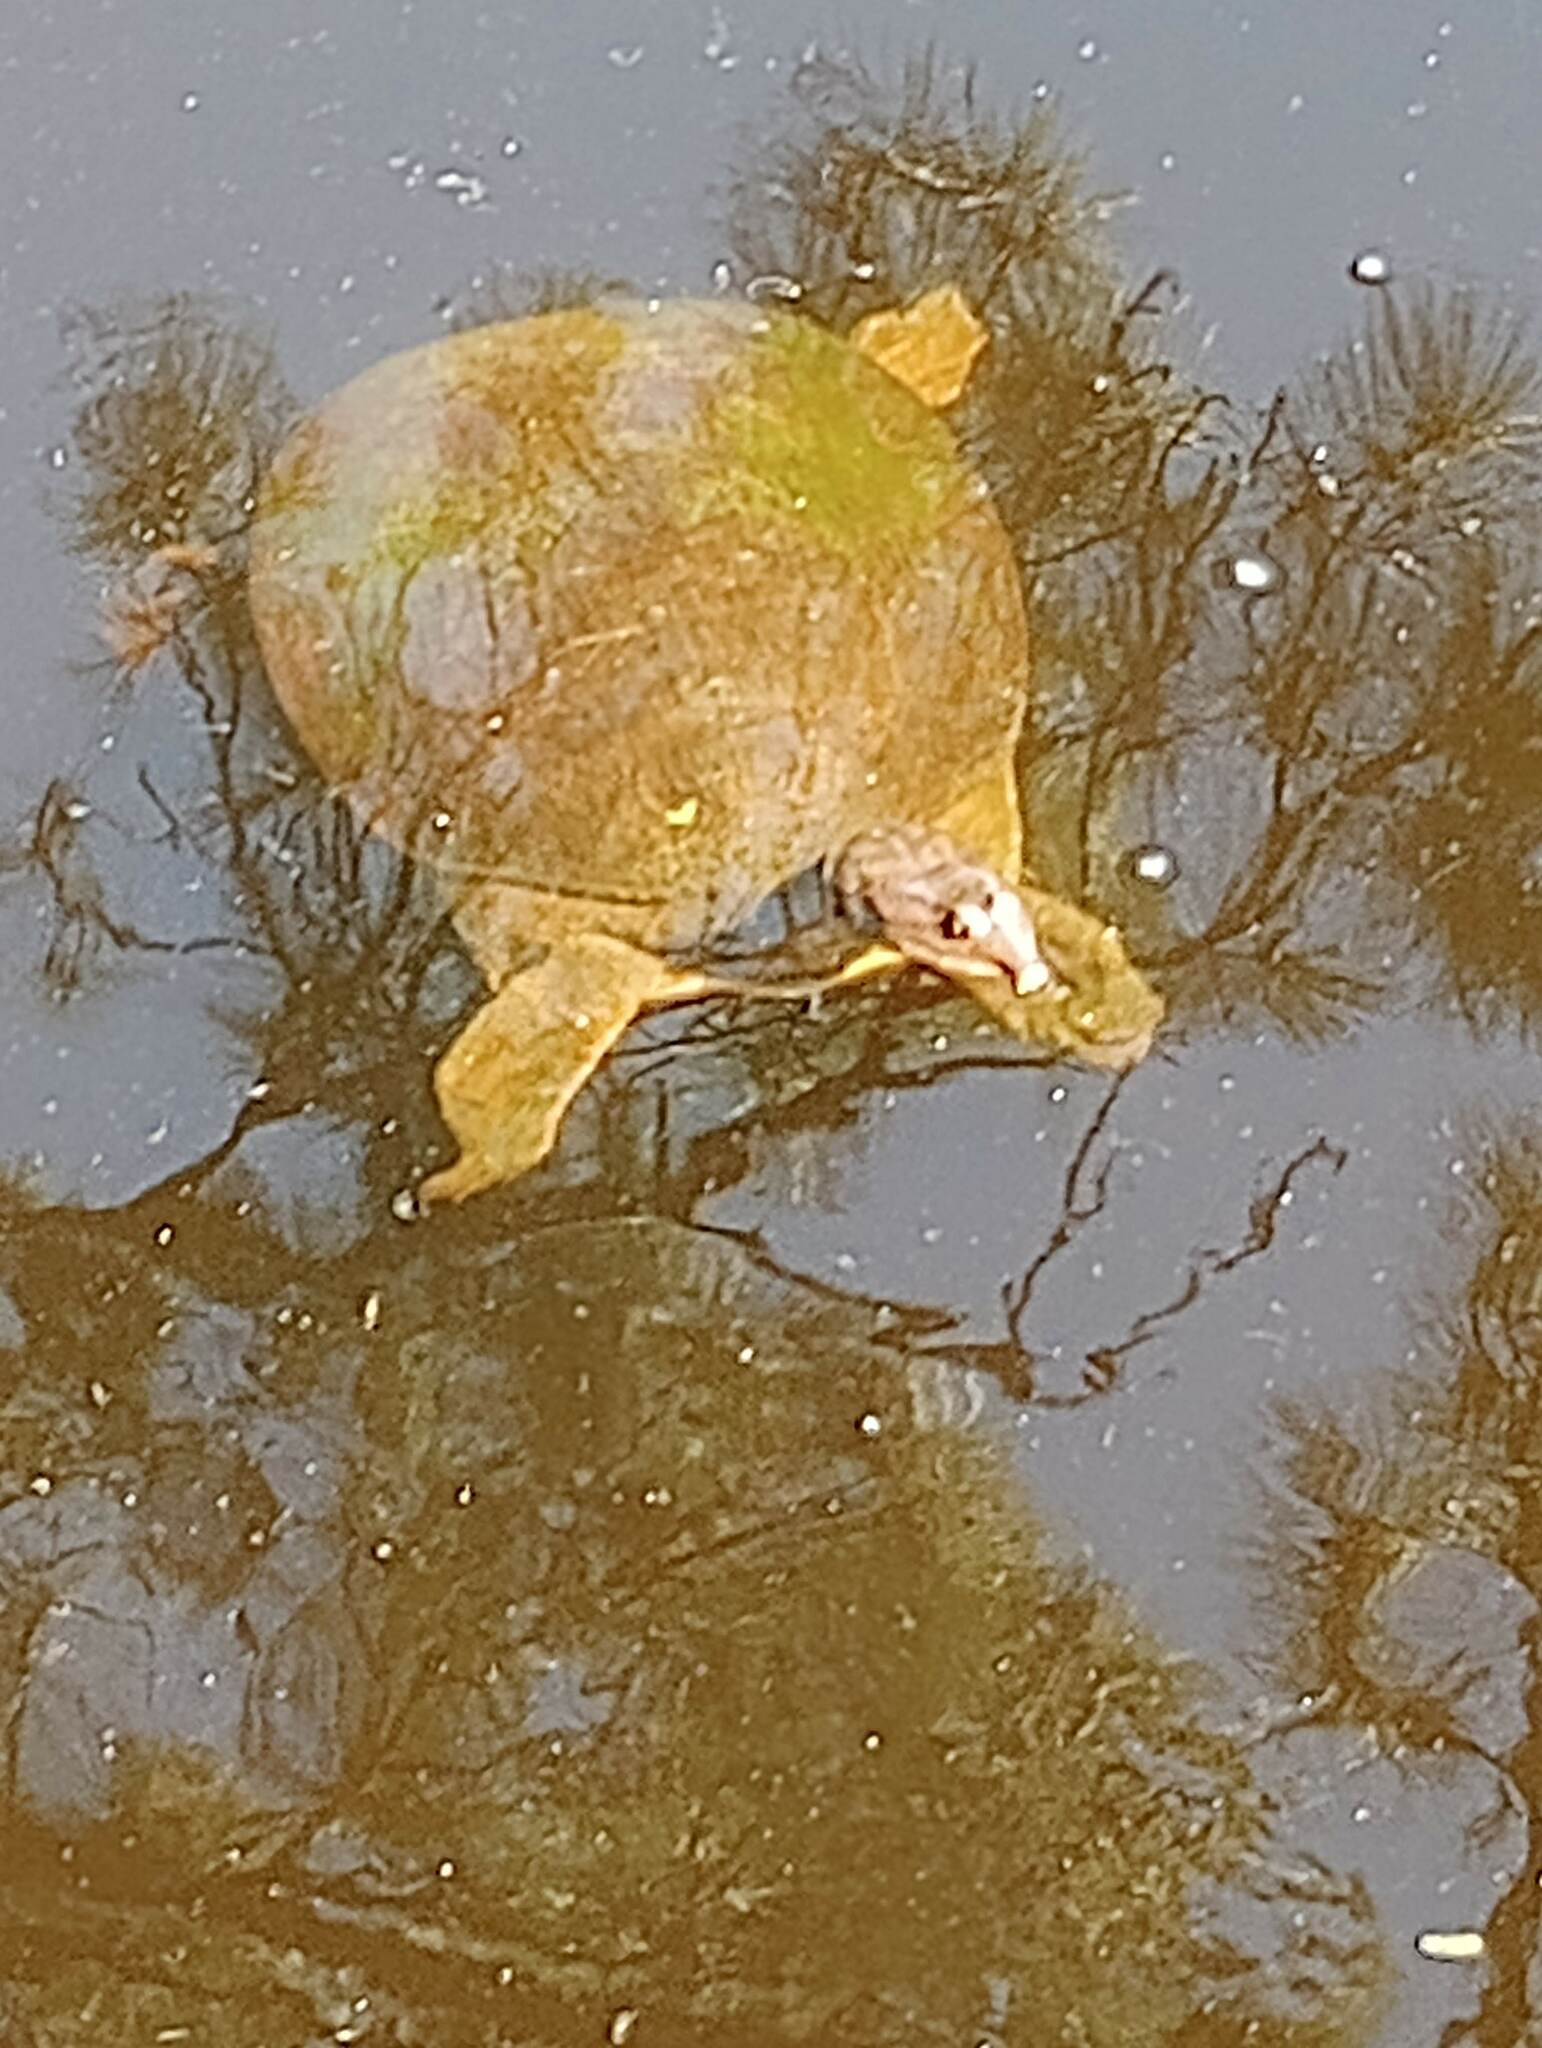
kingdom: Animalia
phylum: Chordata
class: Testudines
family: Trionychidae
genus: Apalone
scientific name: Apalone ferox
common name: Florida softshell turtle
